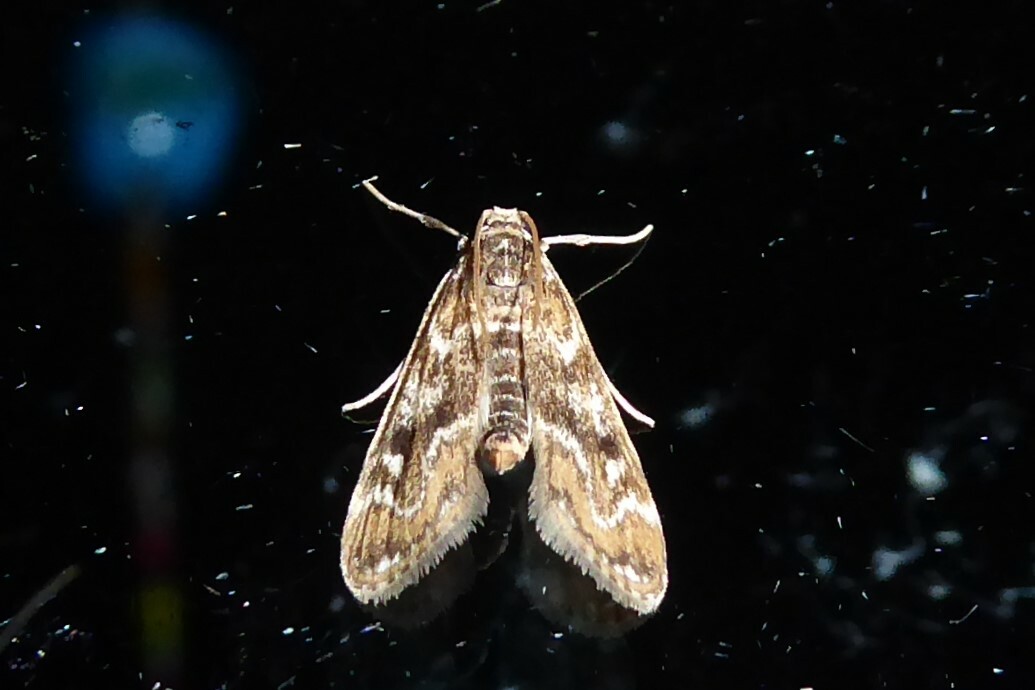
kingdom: Animalia
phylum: Arthropoda
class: Insecta
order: Lepidoptera
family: Crambidae
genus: Hygraula
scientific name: Hygraula nitens
